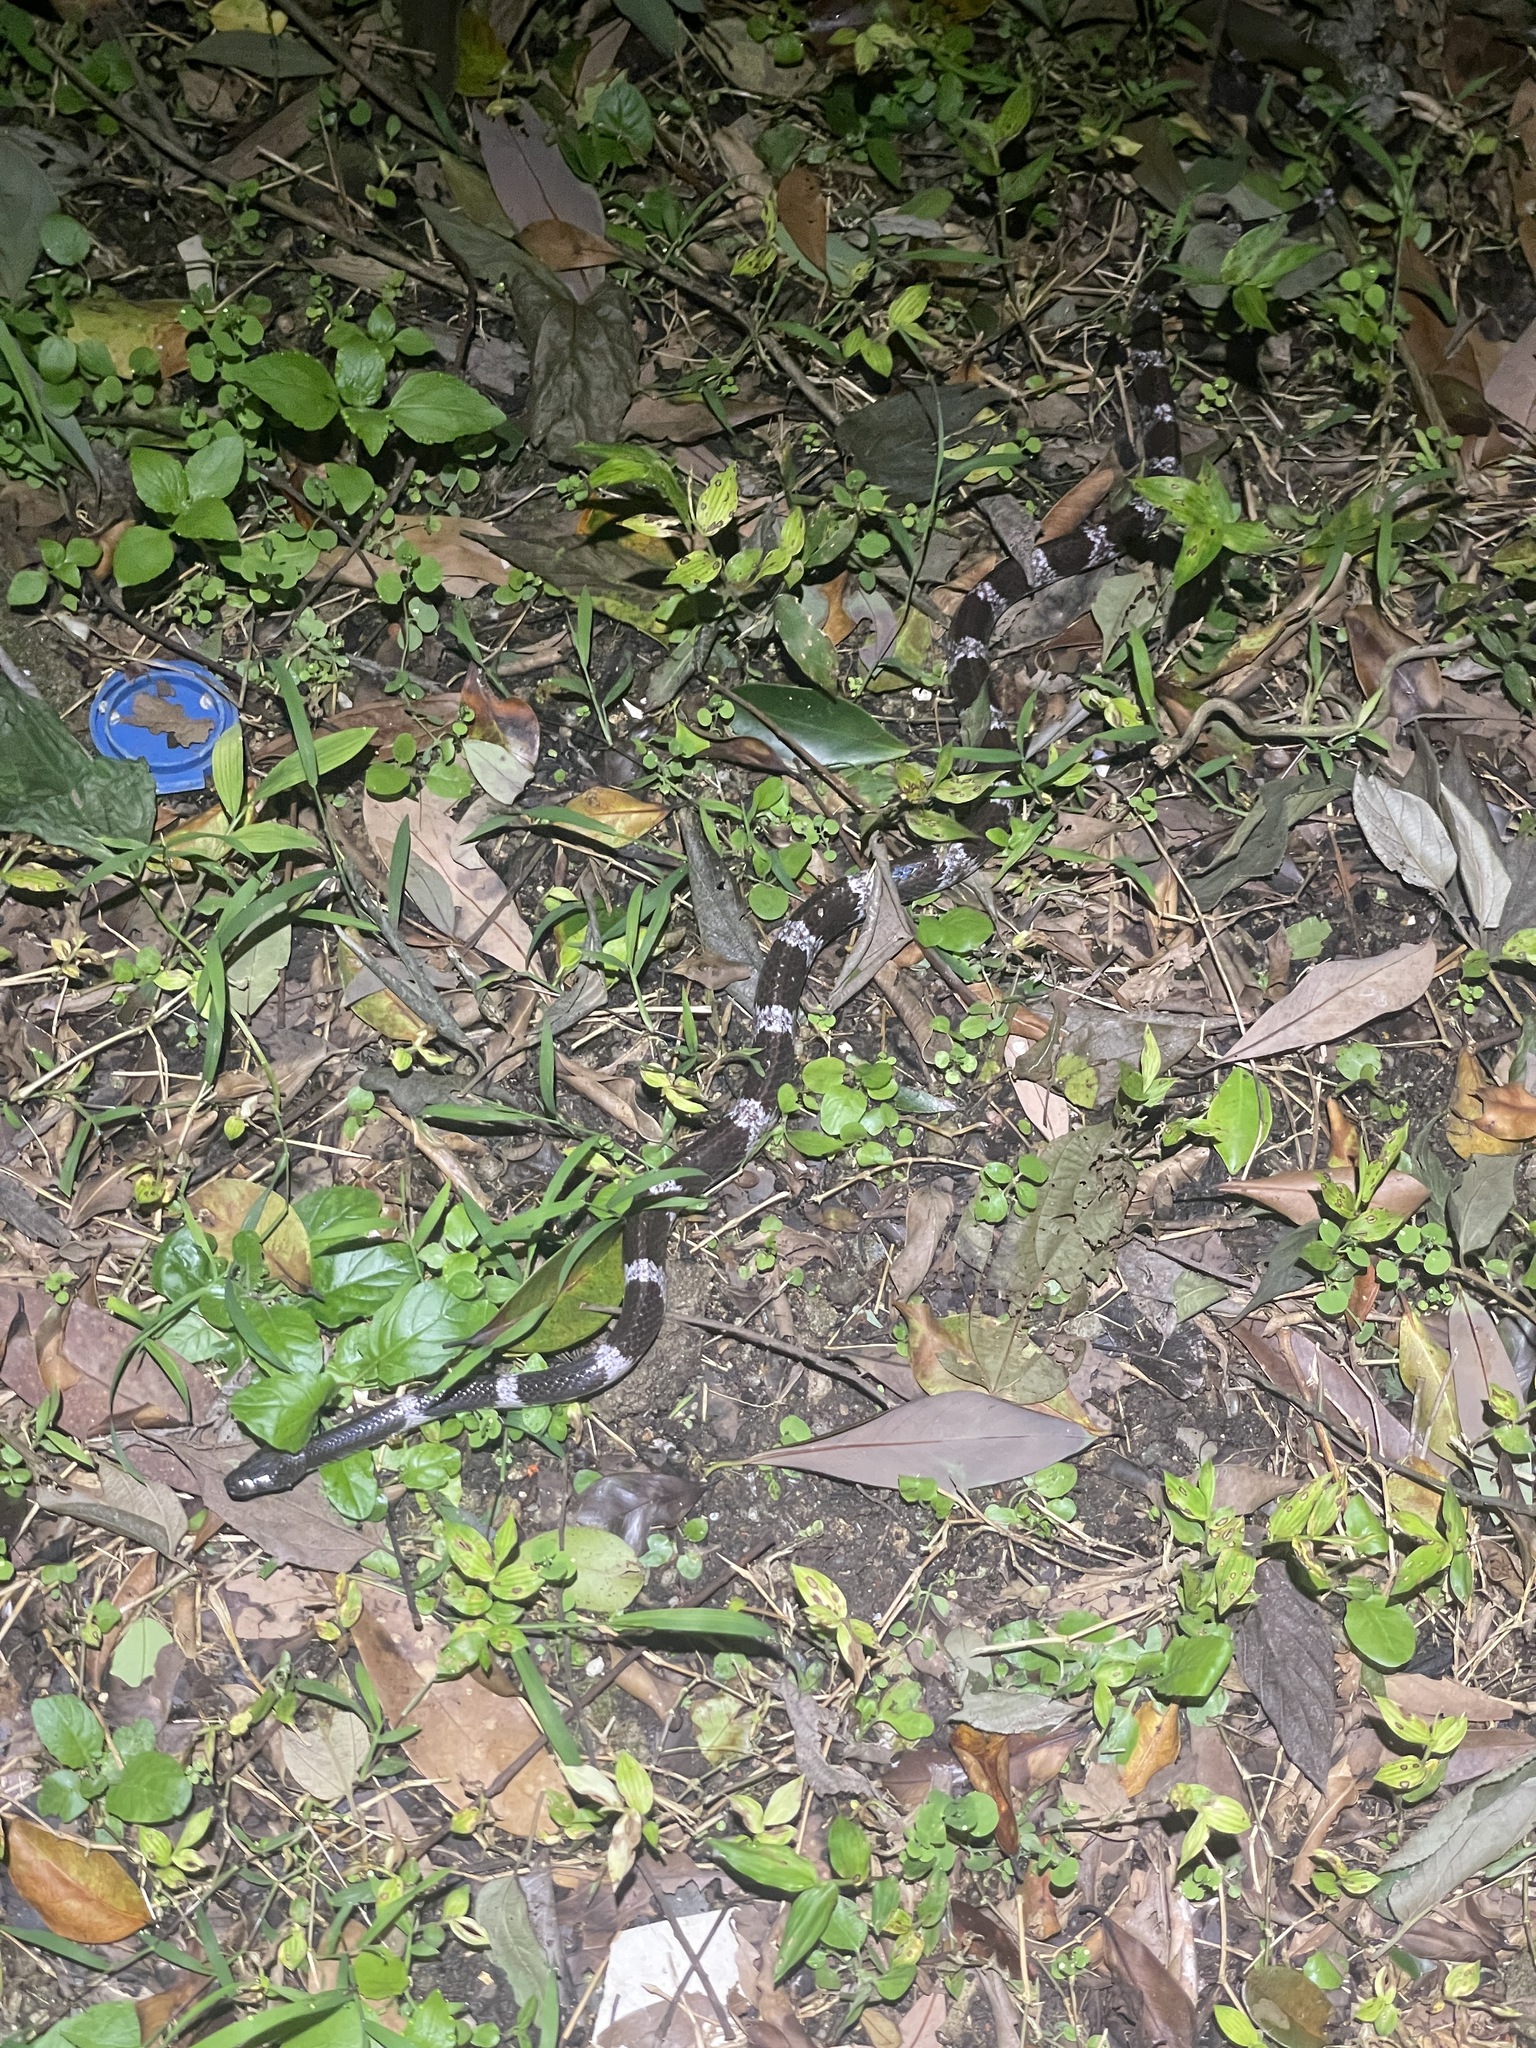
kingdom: Animalia
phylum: Chordata
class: Squamata
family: Colubridae
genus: Lycodon
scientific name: Lycodon futsingensis
